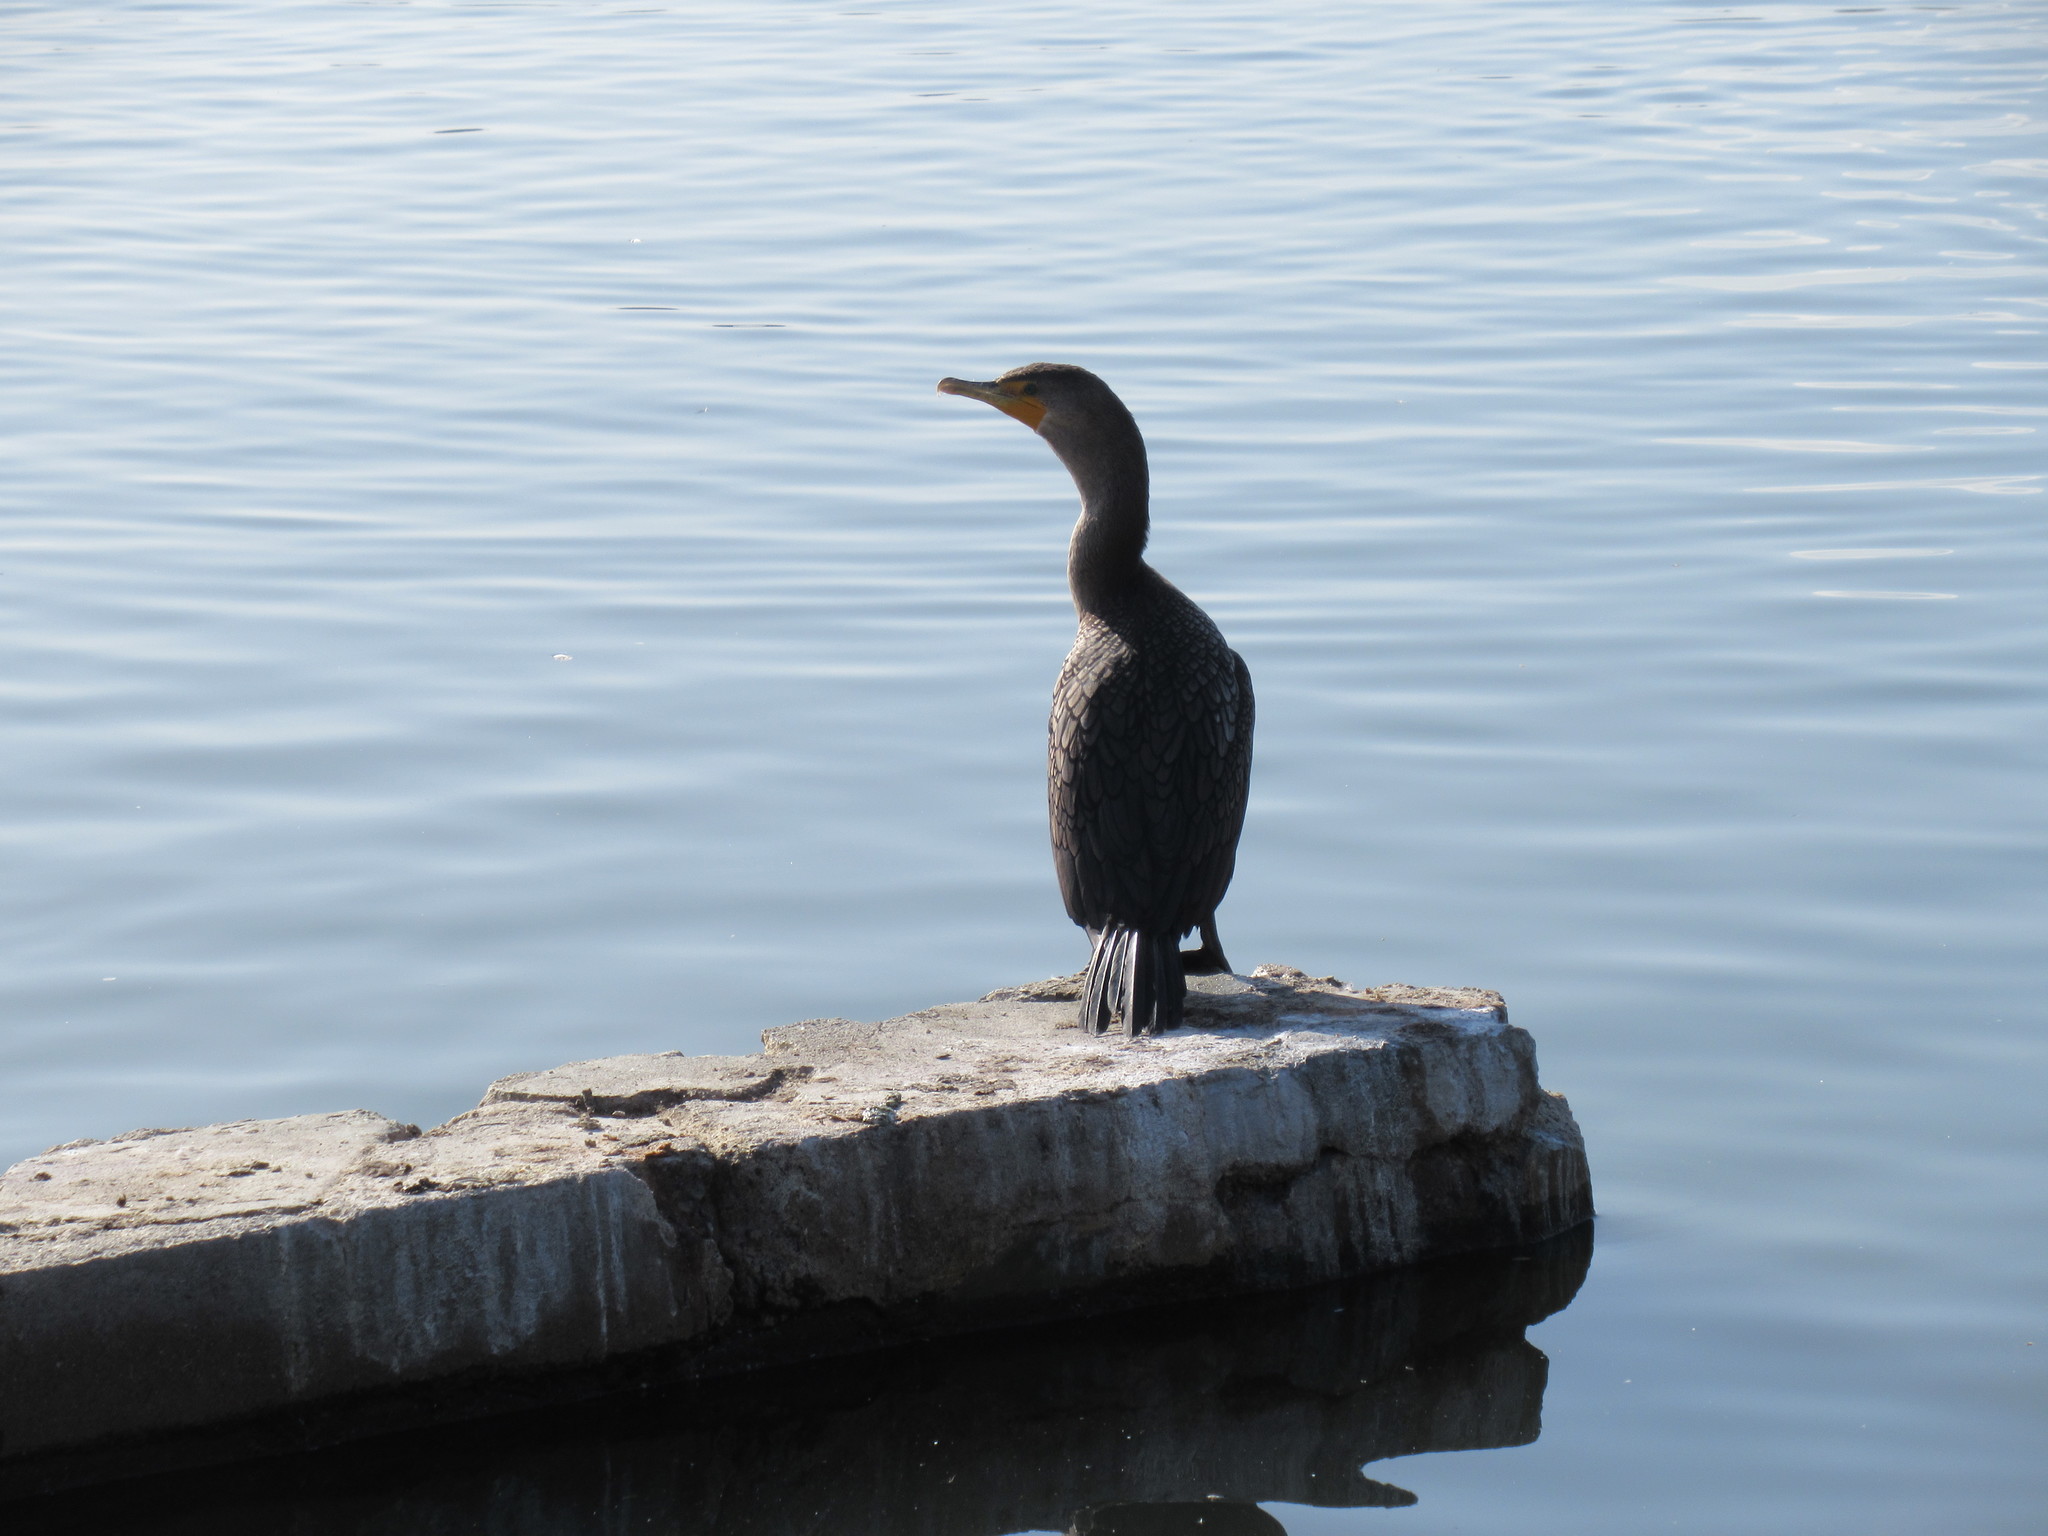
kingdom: Animalia
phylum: Chordata
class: Aves
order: Suliformes
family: Phalacrocoracidae
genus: Phalacrocorax
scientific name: Phalacrocorax auritus
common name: Double-crested cormorant
